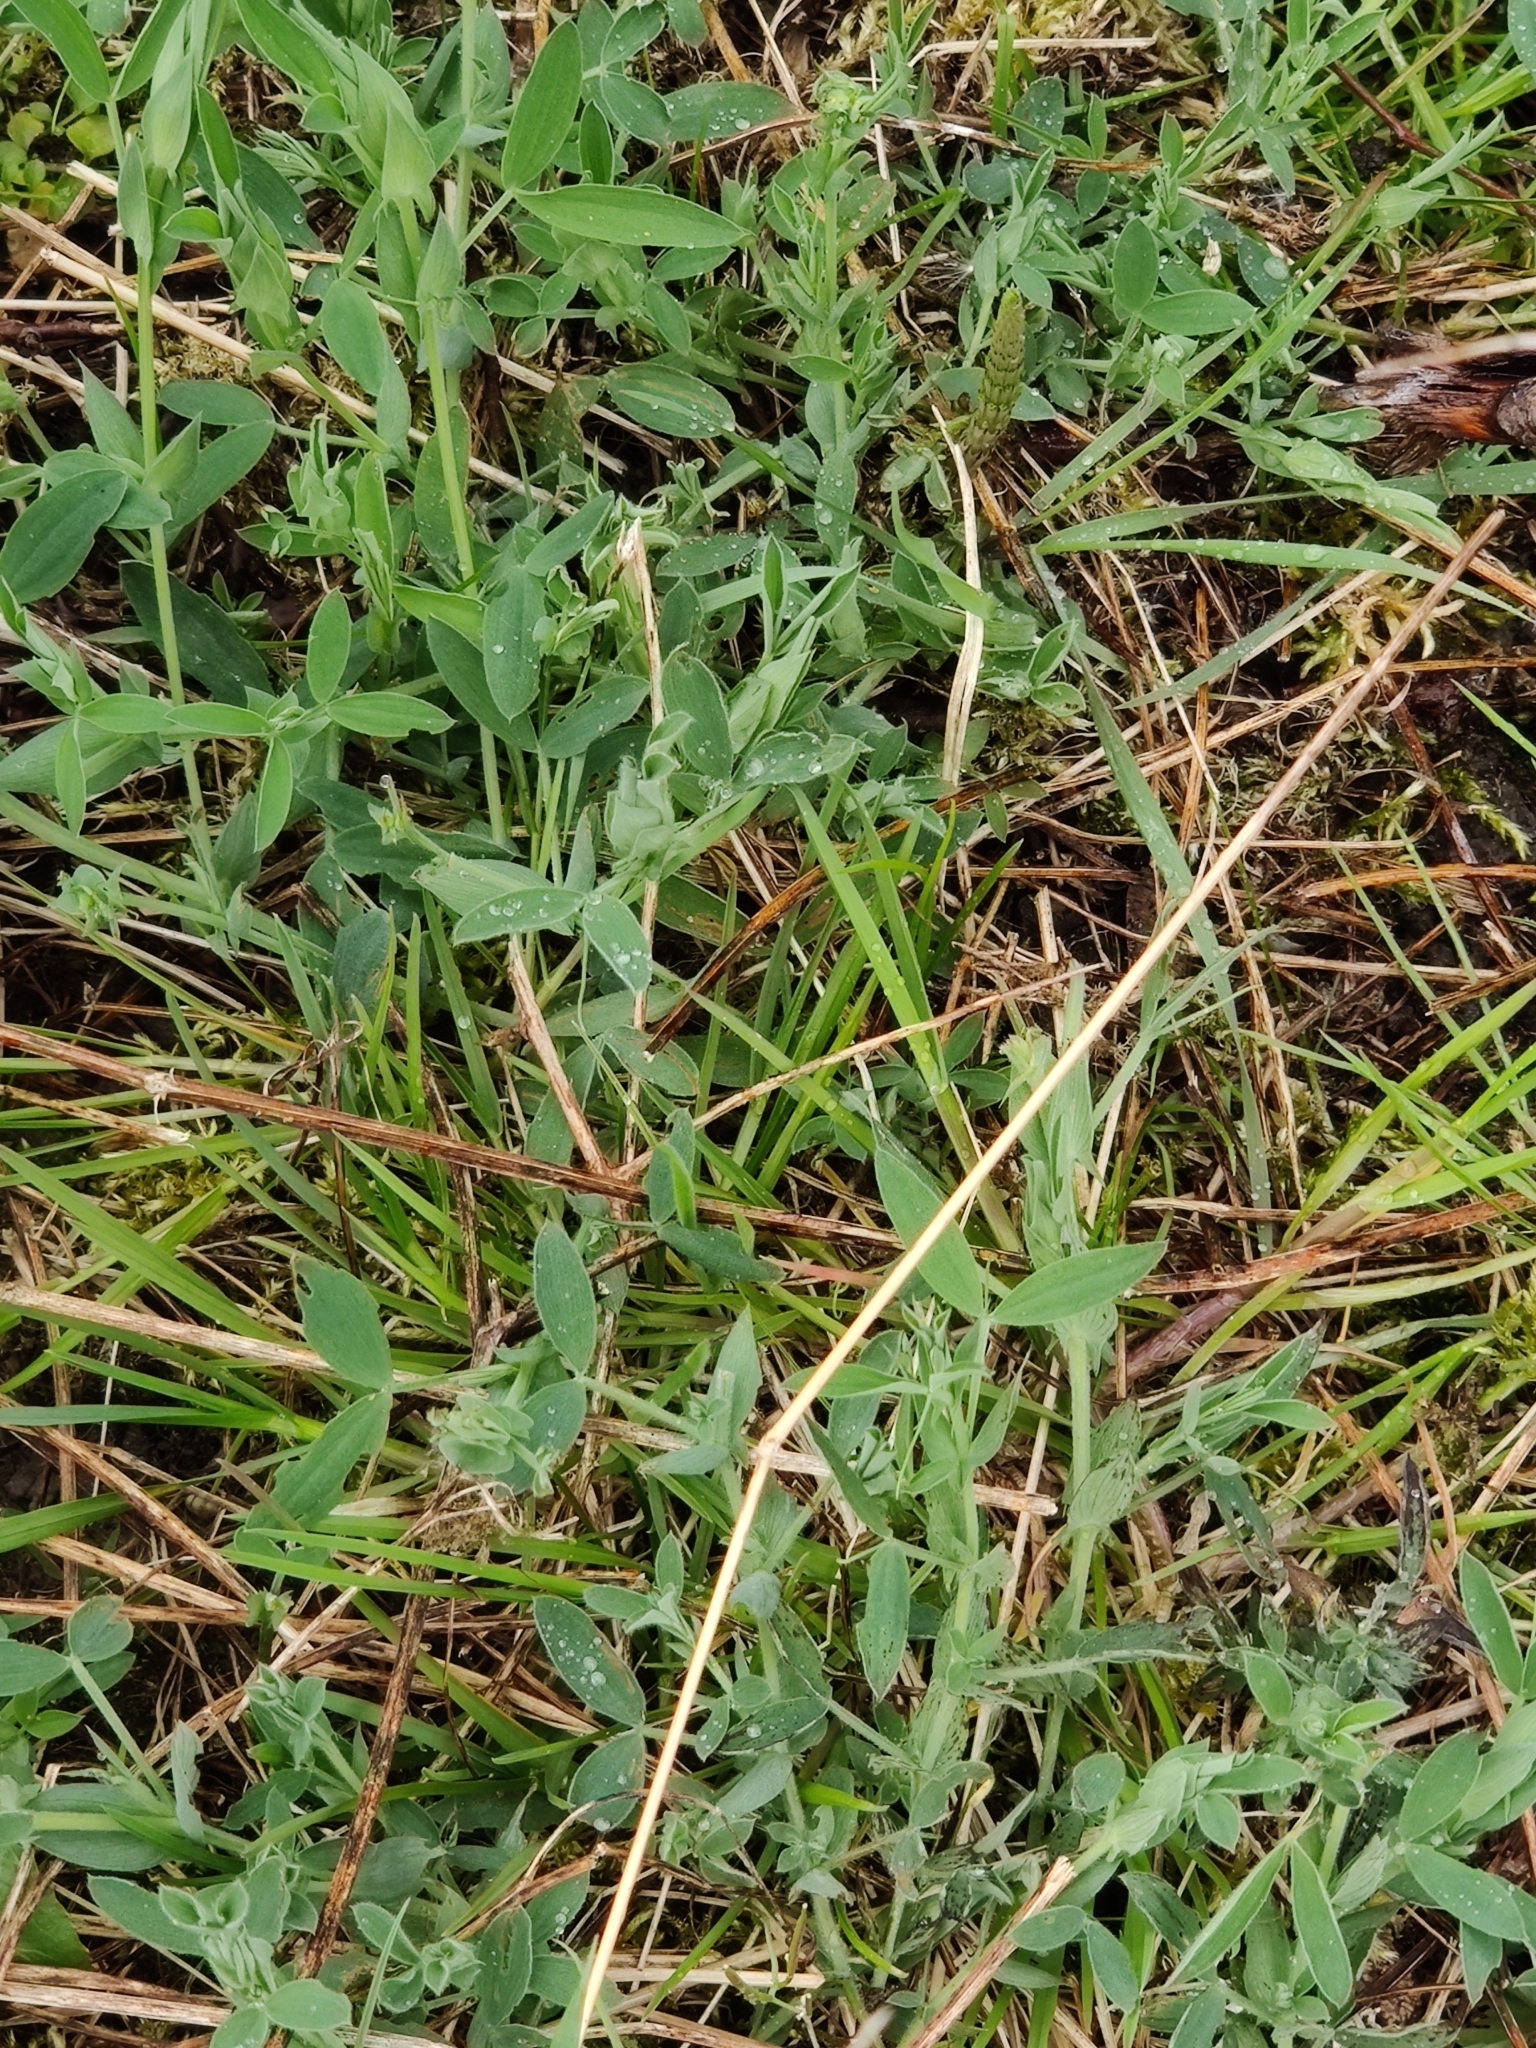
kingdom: Plantae
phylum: Tracheophyta
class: Magnoliopsida
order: Fabales
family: Fabaceae
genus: Lathyrus
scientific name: Lathyrus pratensis
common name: Meadow vetchling
